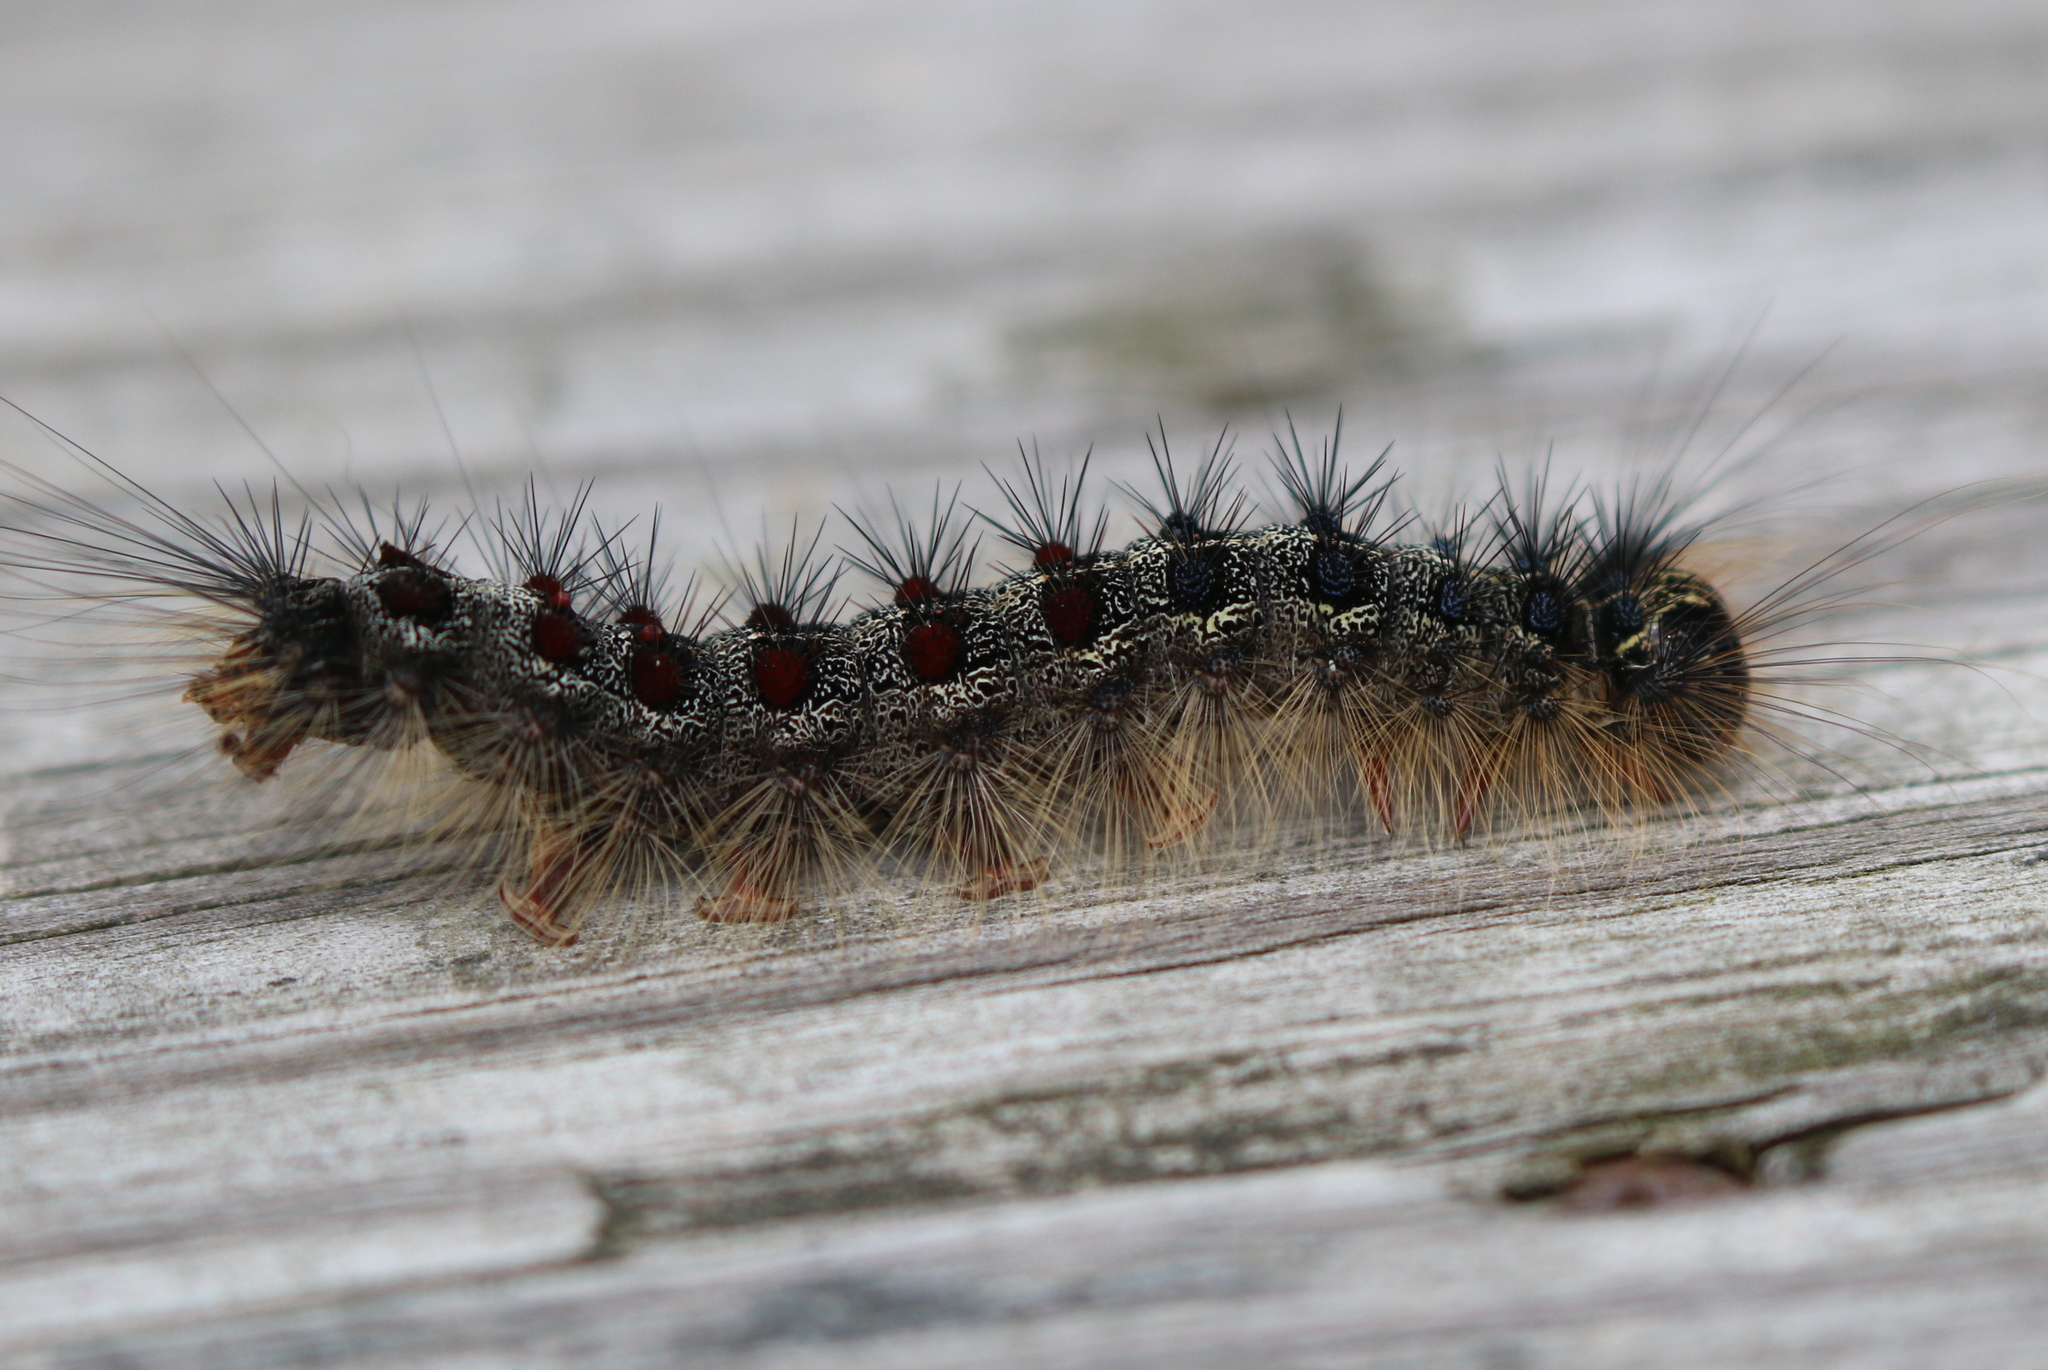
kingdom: Animalia
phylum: Arthropoda
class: Insecta
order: Lepidoptera
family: Erebidae
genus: Lymantria
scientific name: Lymantria dispar
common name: Gypsy moth
